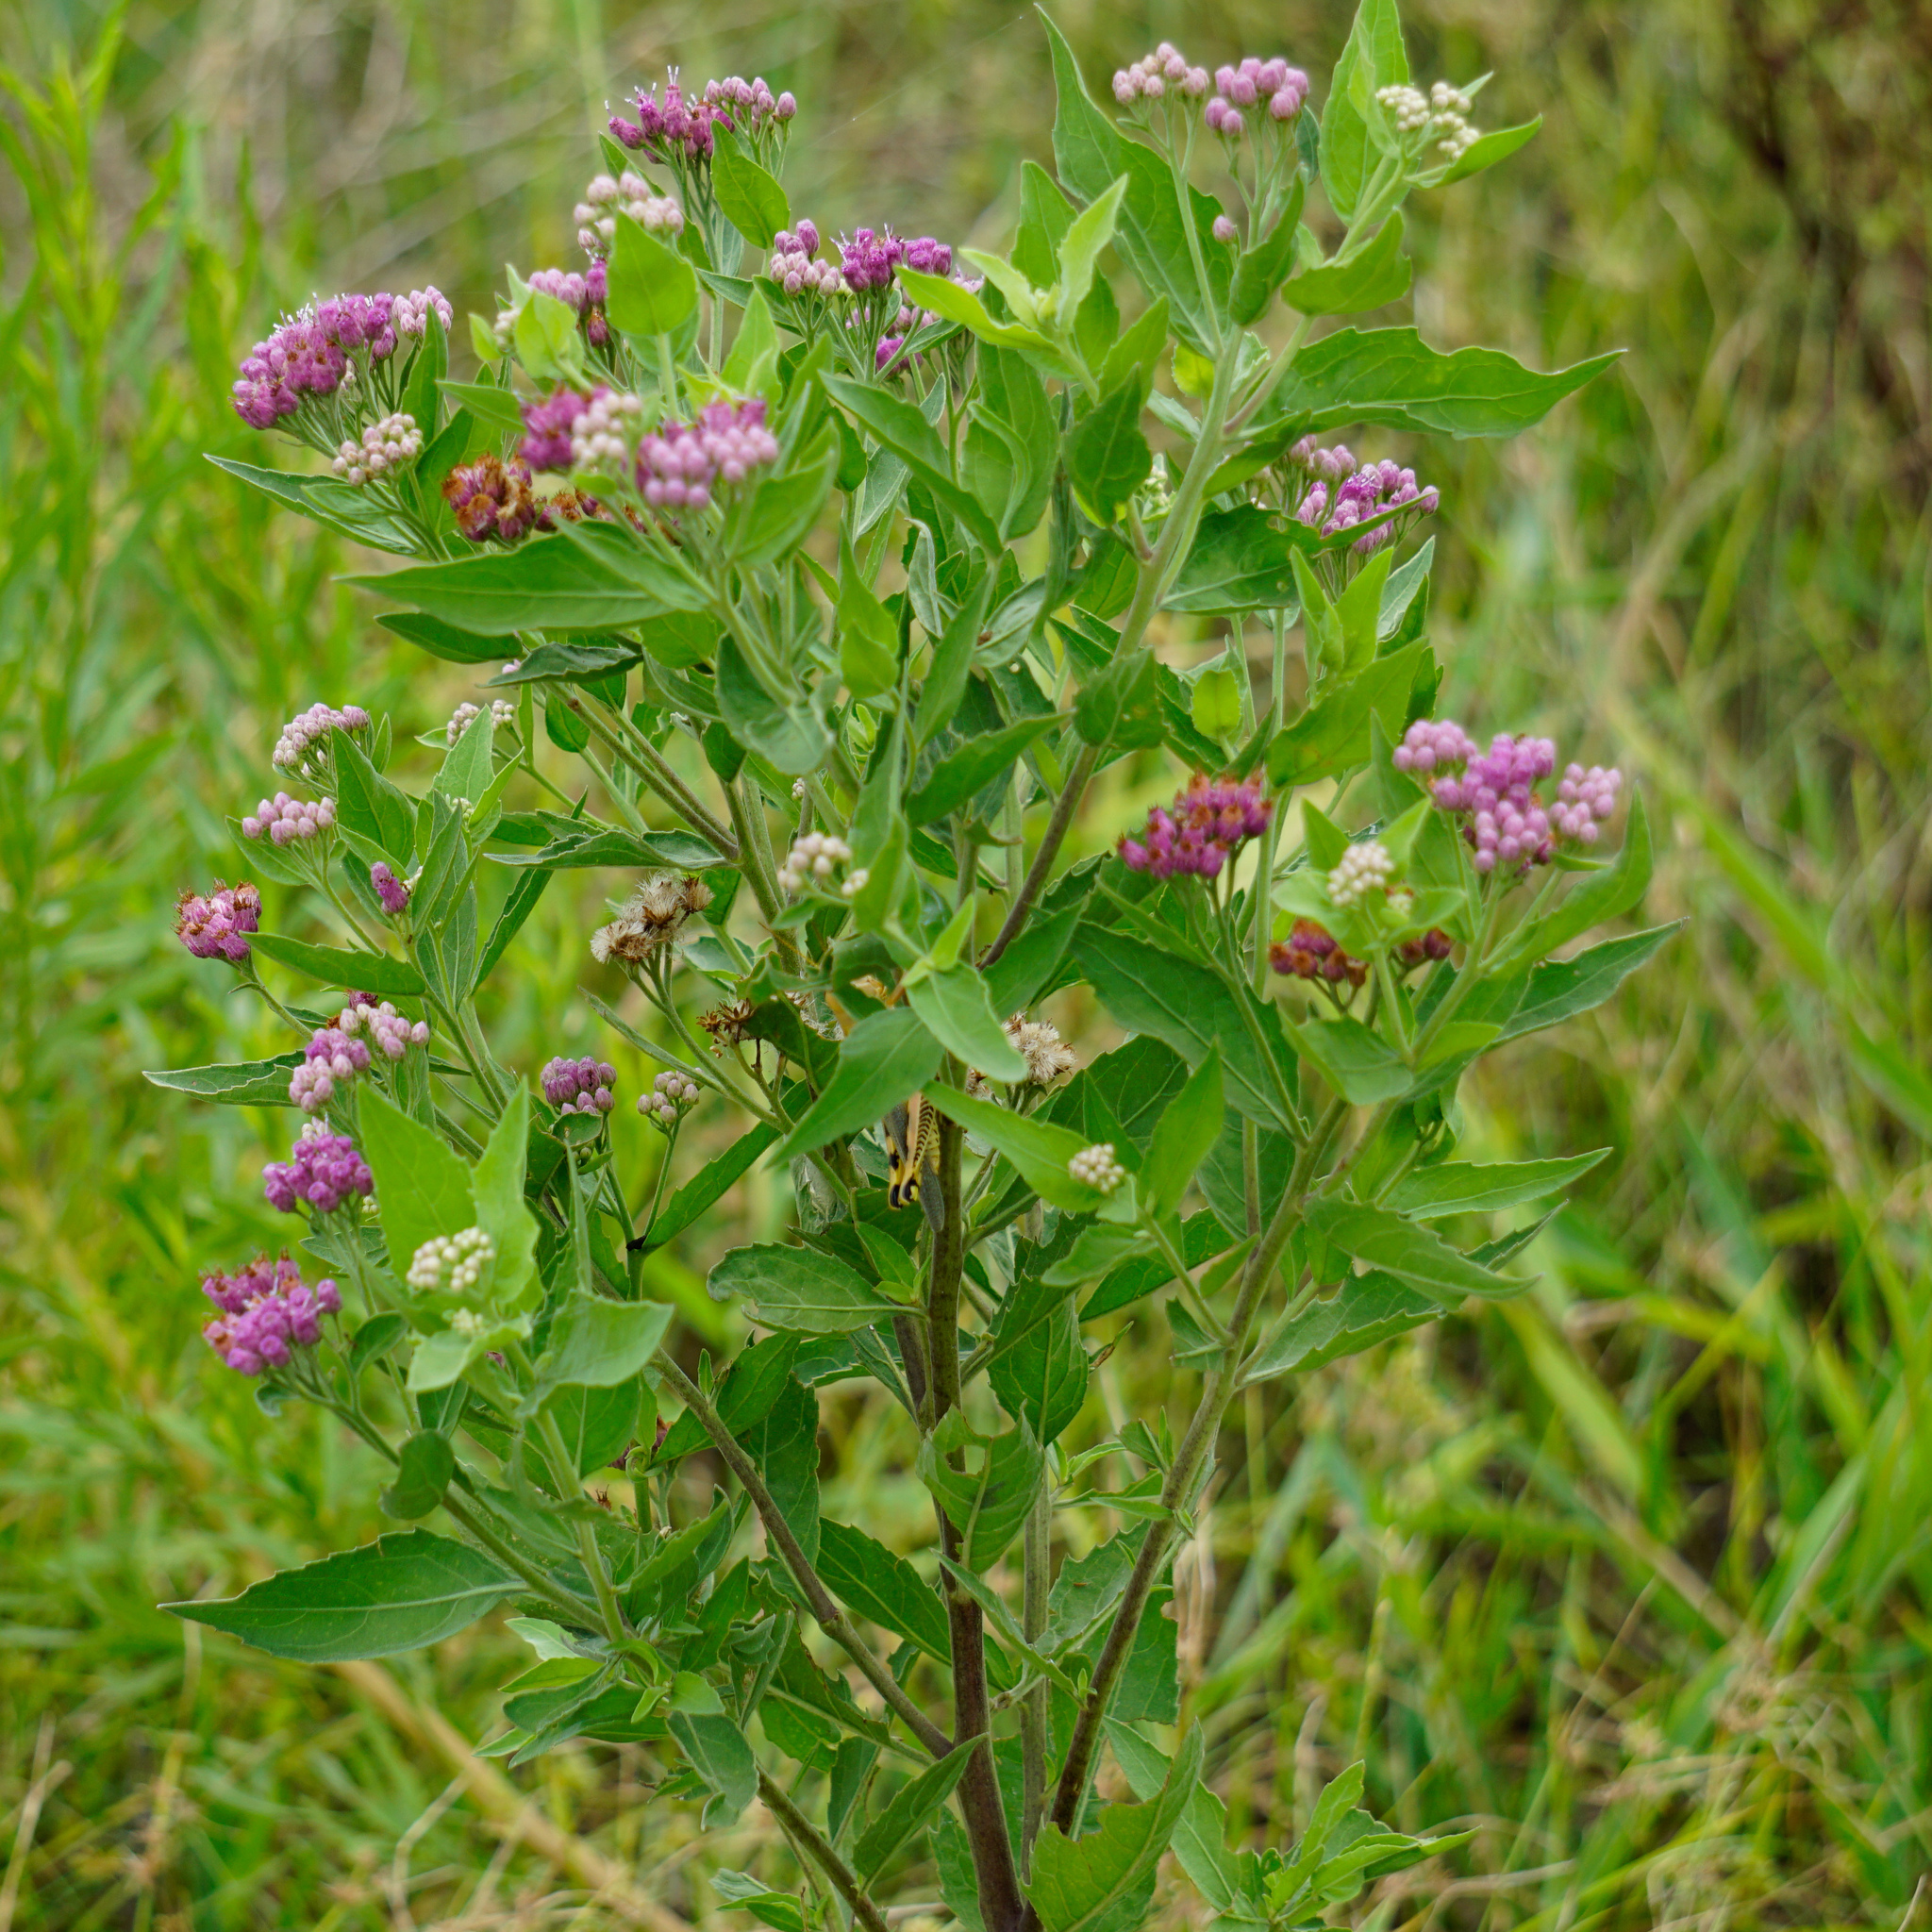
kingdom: Plantae
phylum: Tracheophyta
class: Magnoliopsida
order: Asterales
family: Asteraceae
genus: Pluchea
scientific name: Pluchea odorata
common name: Saltmarsh fleabane
